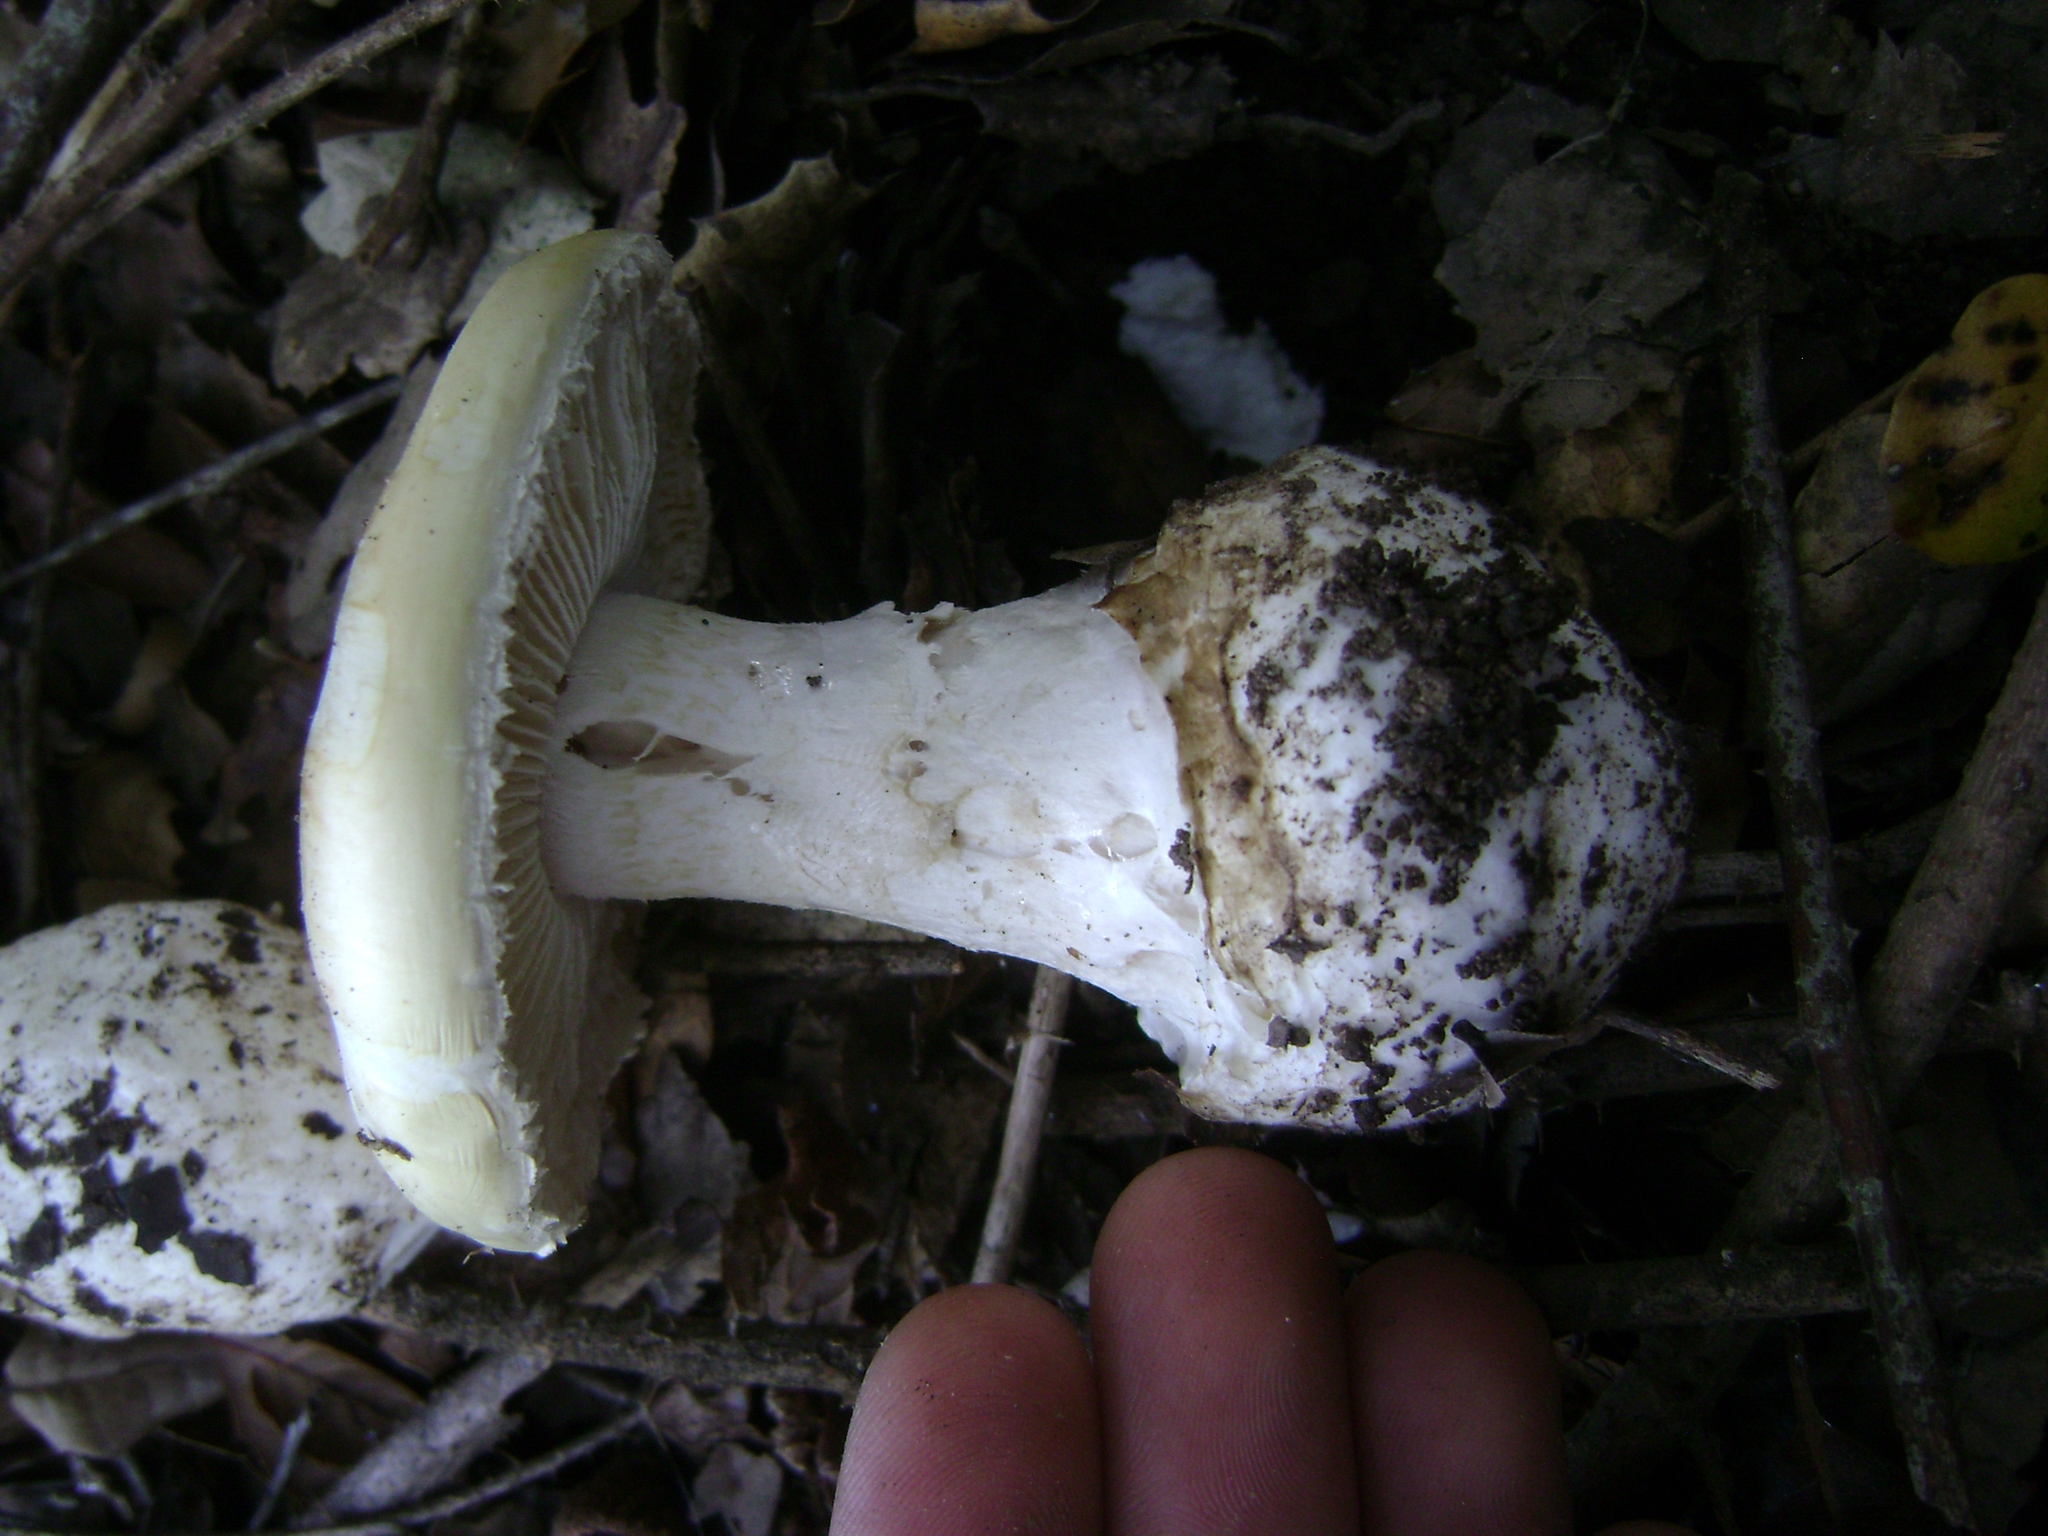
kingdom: Fungi
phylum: Basidiomycota
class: Agaricomycetes
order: Agaricales
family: Amanitaceae
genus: Amanita
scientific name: Amanita ocreata
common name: Western destroying angel
